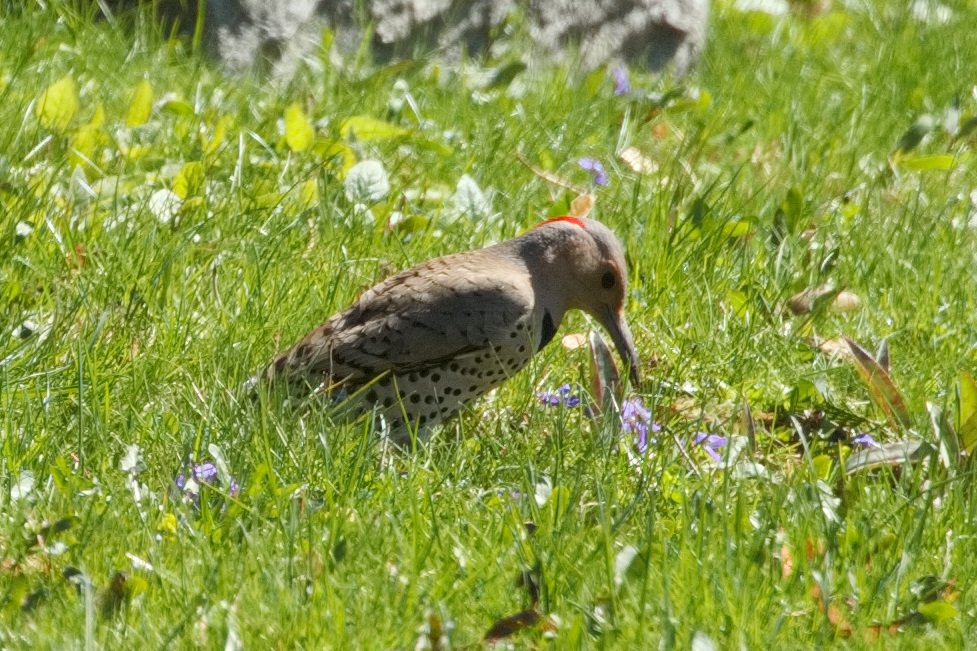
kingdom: Animalia
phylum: Chordata
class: Aves
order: Piciformes
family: Picidae
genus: Colaptes
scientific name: Colaptes auratus
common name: Northern flicker
